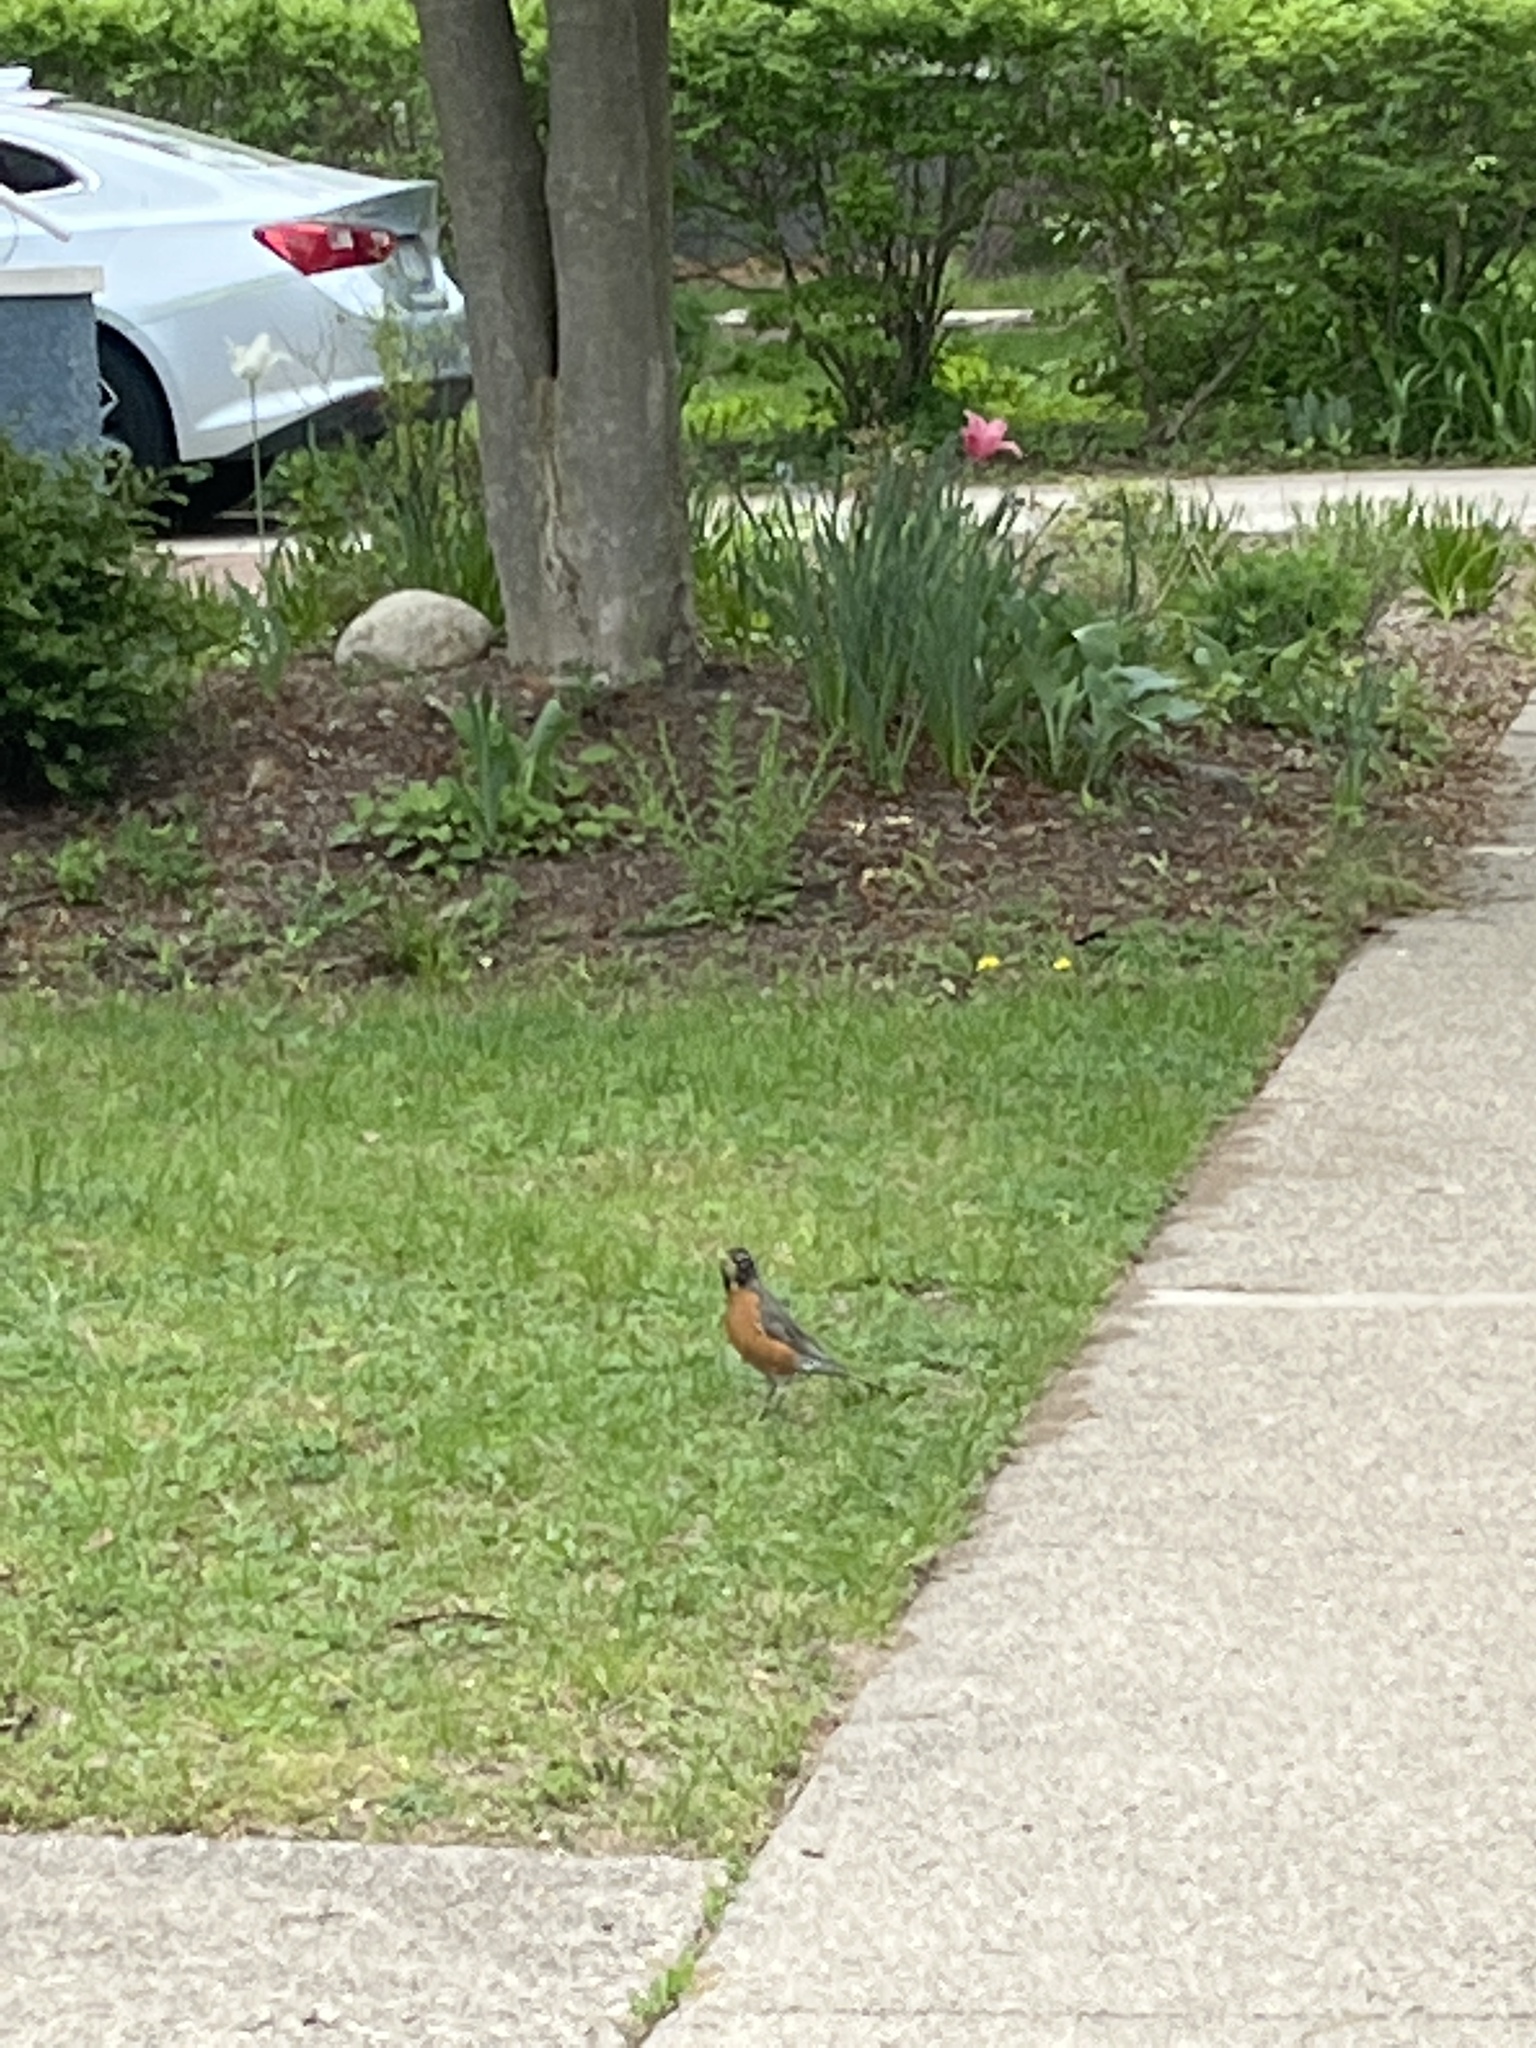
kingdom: Animalia
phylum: Chordata
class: Aves
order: Passeriformes
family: Turdidae
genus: Turdus
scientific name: Turdus migratorius
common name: American robin
